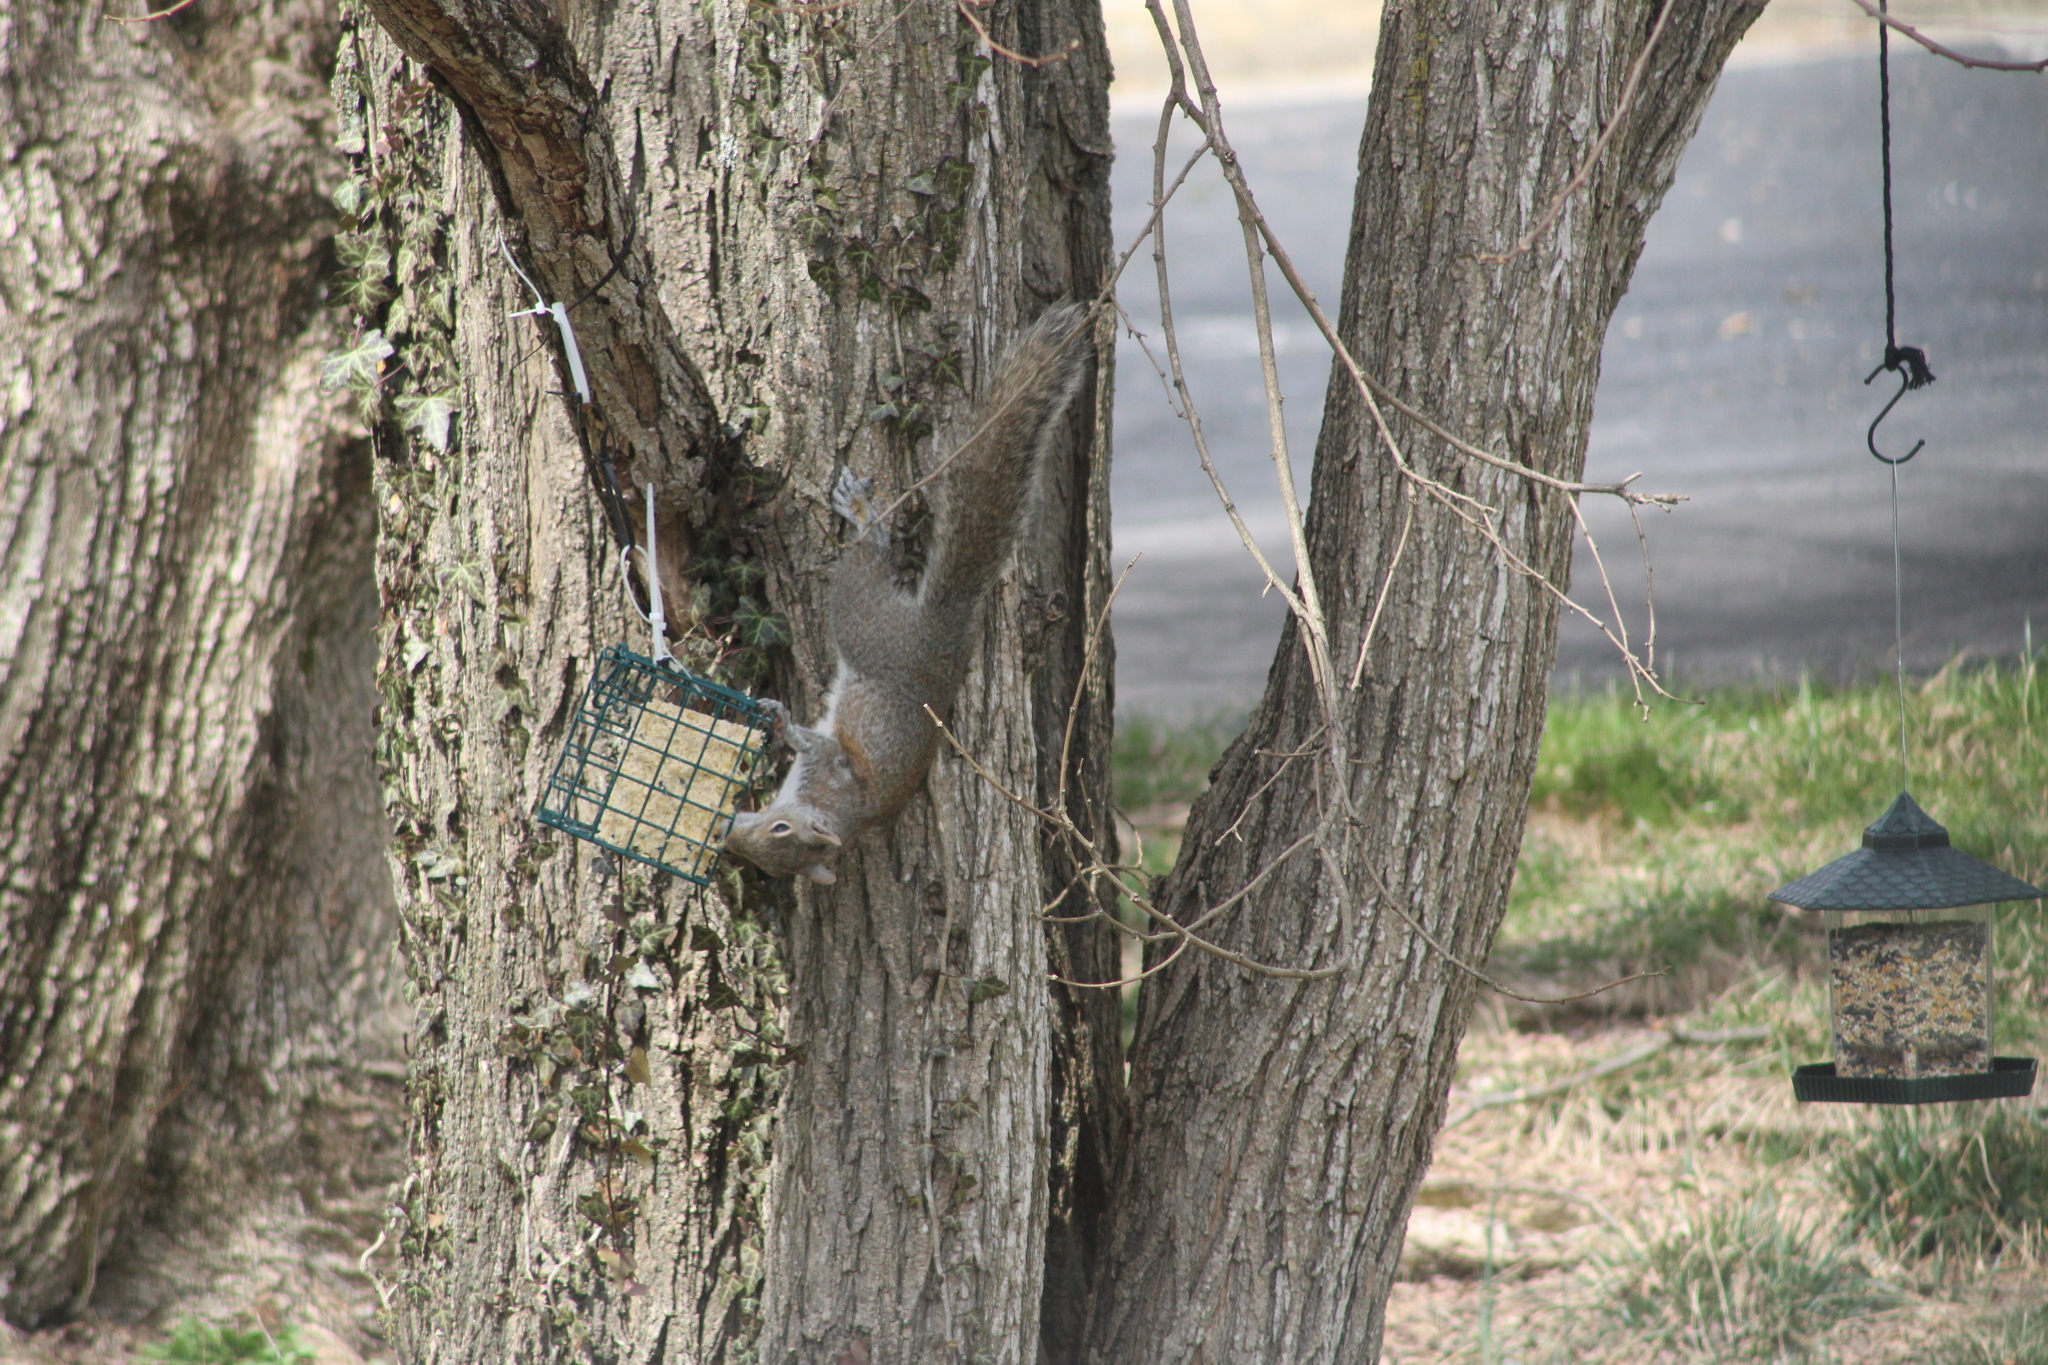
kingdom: Animalia
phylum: Chordata
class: Mammalia
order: Rodentia
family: Sciuridae
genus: Sciurus
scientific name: Sciurus carolinensis
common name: Eastern gray squirrel
